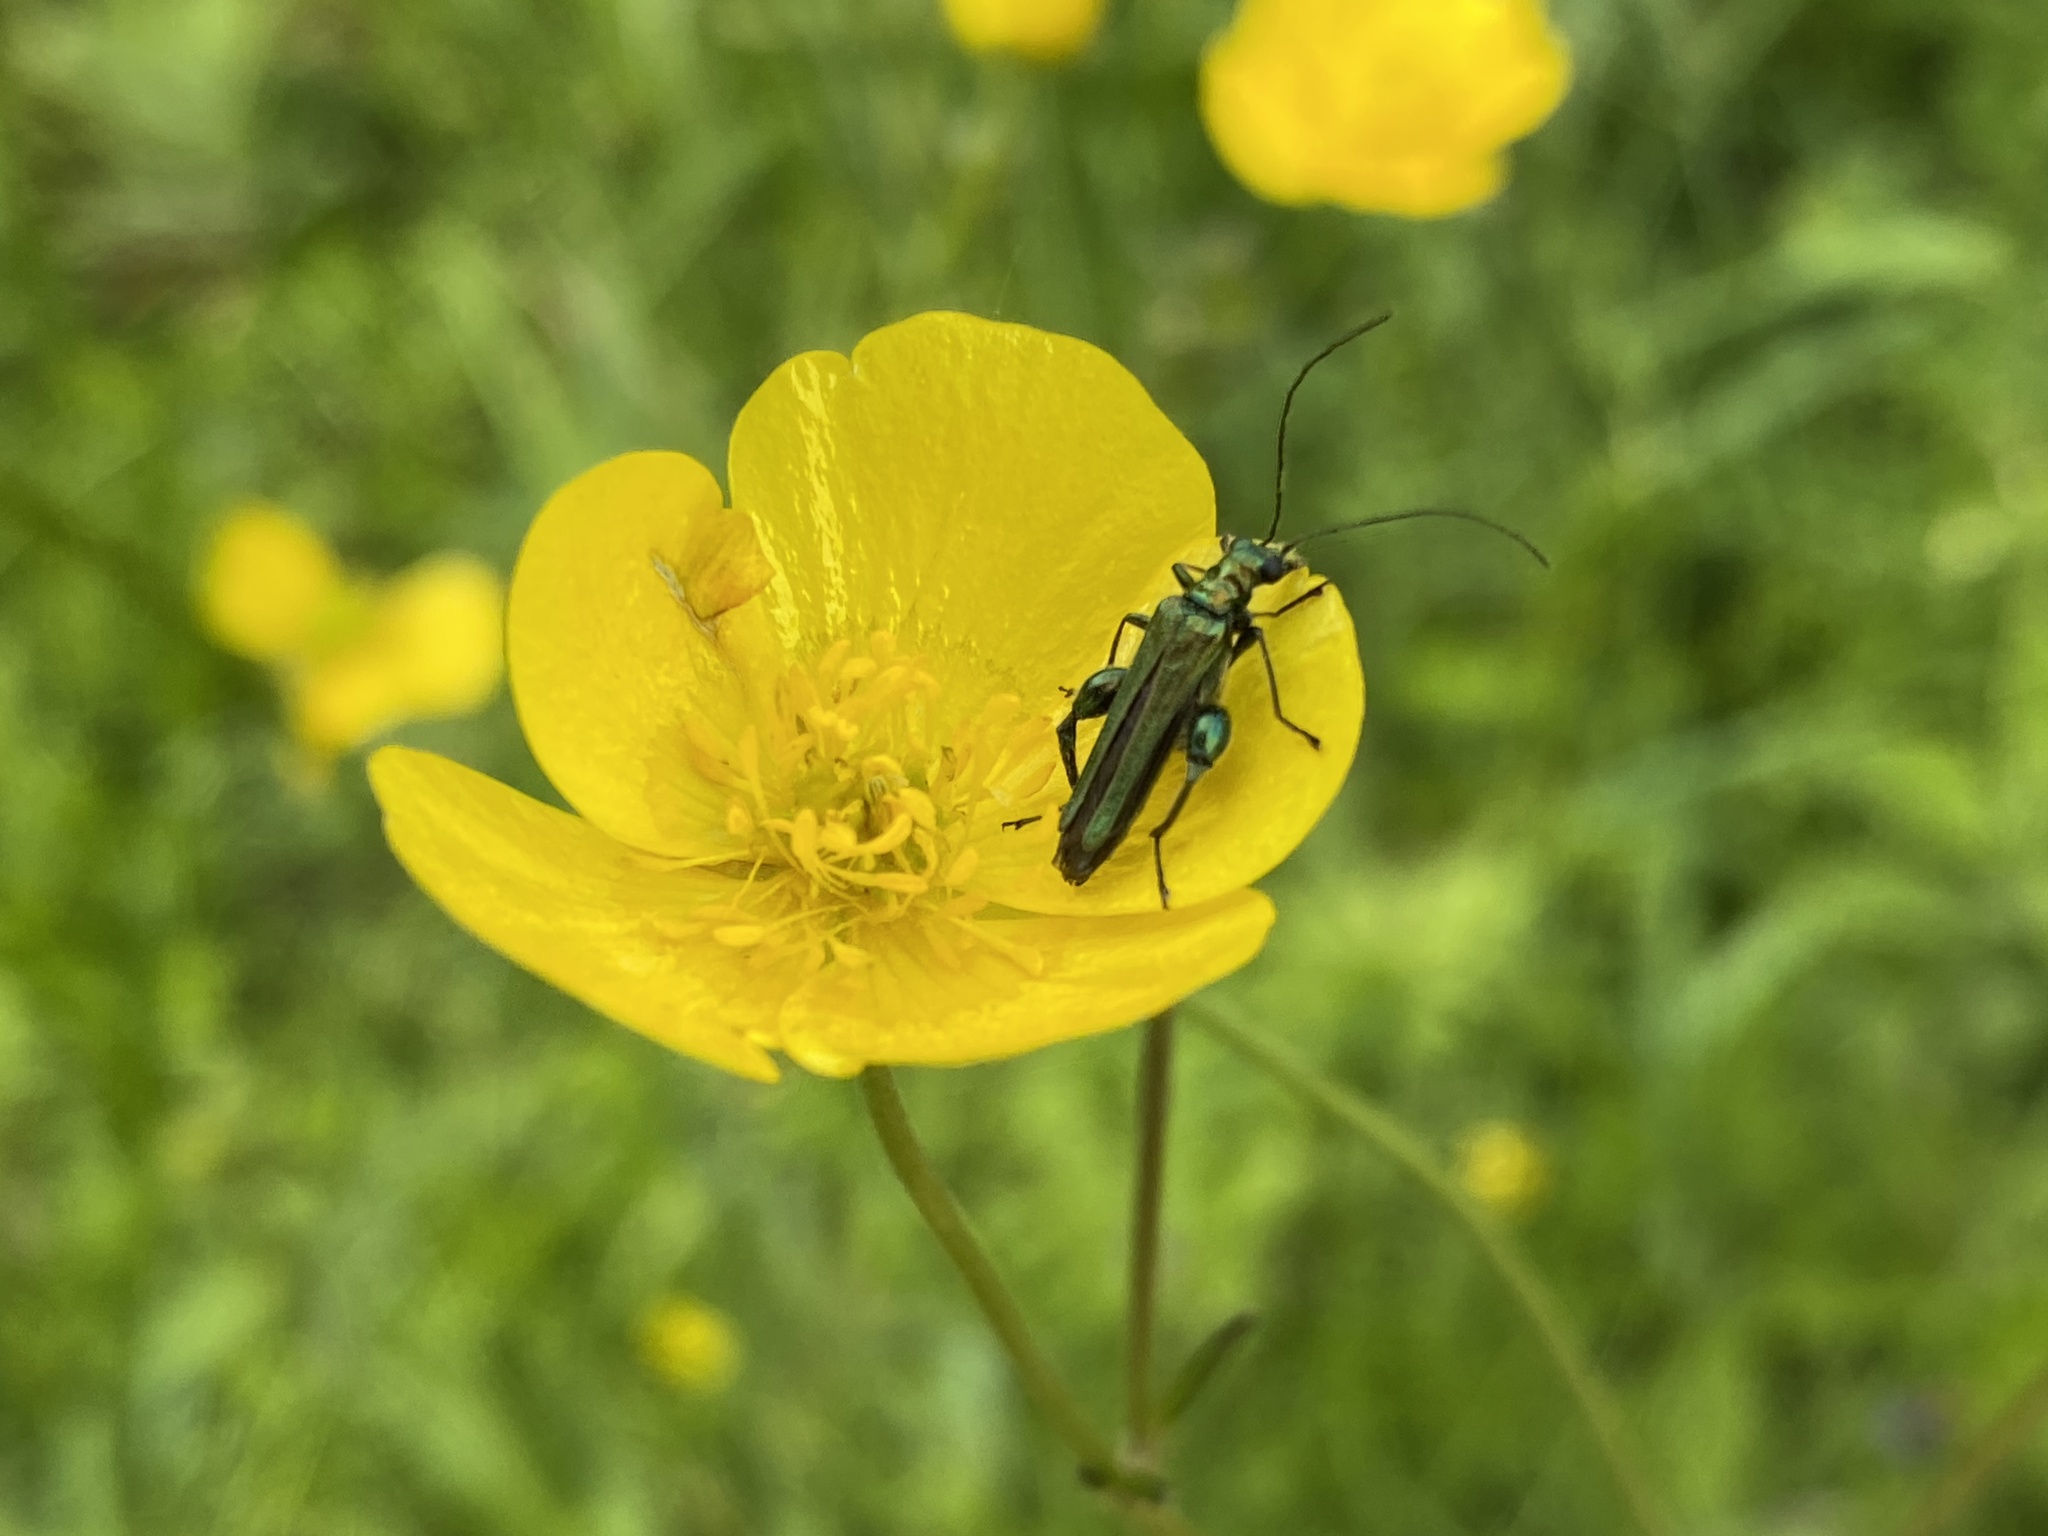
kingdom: Animalia
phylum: Arthropoda
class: Insecta
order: Coleoptera
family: Oedemeridae
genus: Oedemera
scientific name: Oedemera nobilis
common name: Swollen-thighed beetle
